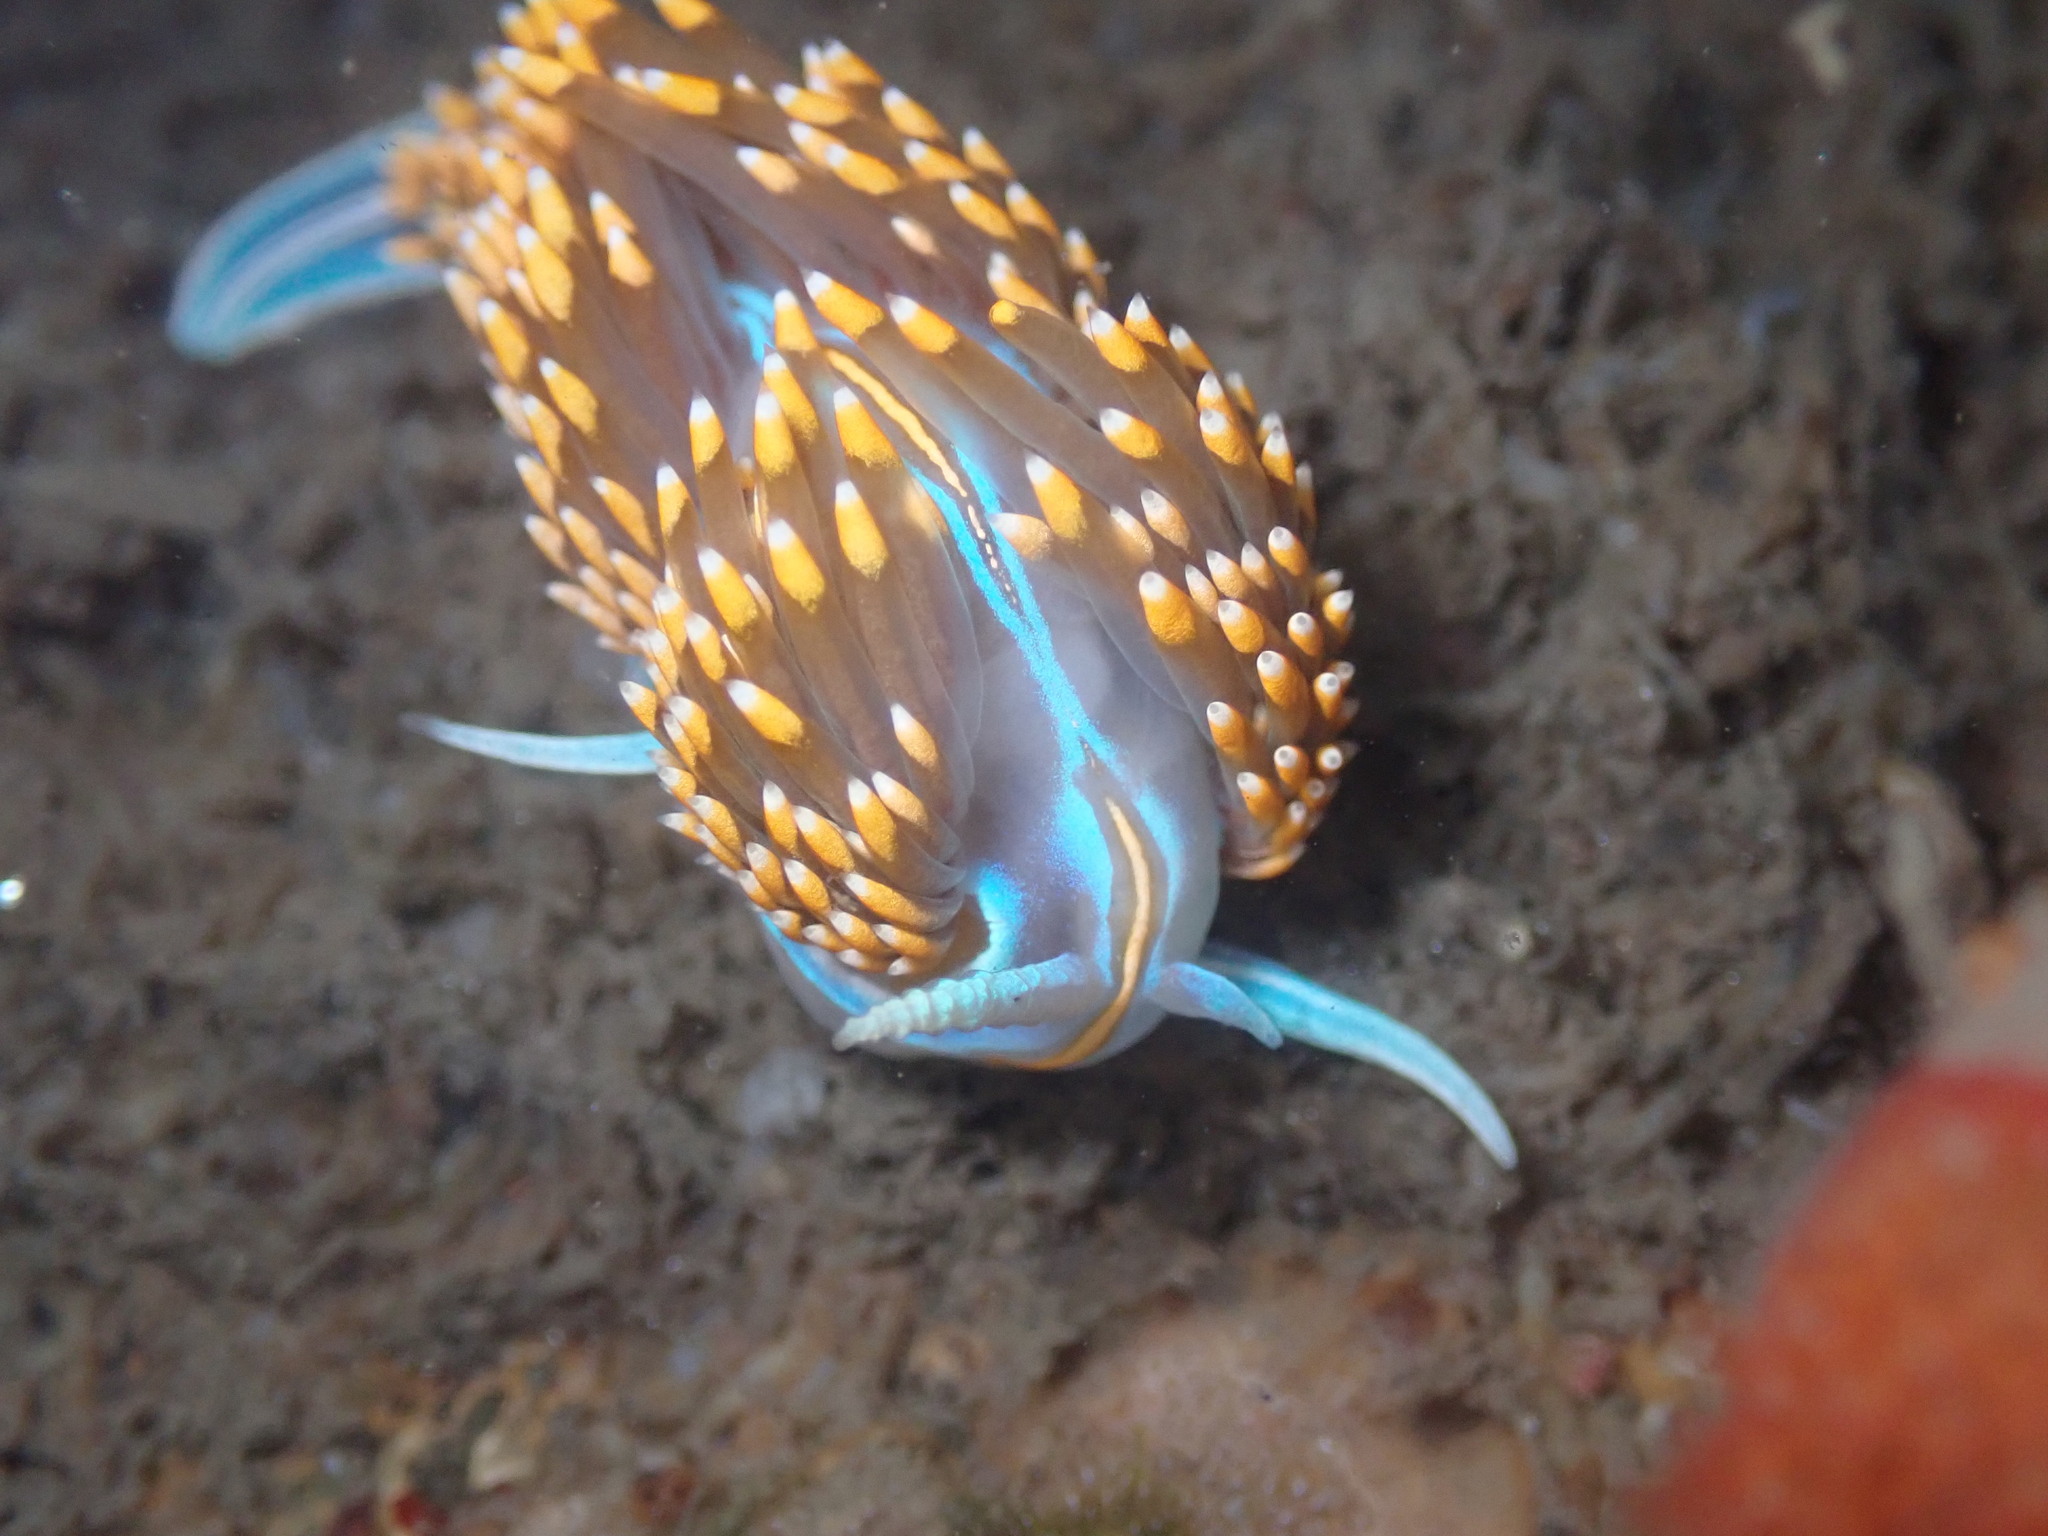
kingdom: Animalia
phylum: Mollusca
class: Gastropoda
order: Nudibranchia
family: Myrrhinidae
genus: Hermissenda
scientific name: Hermissenda opalescens
